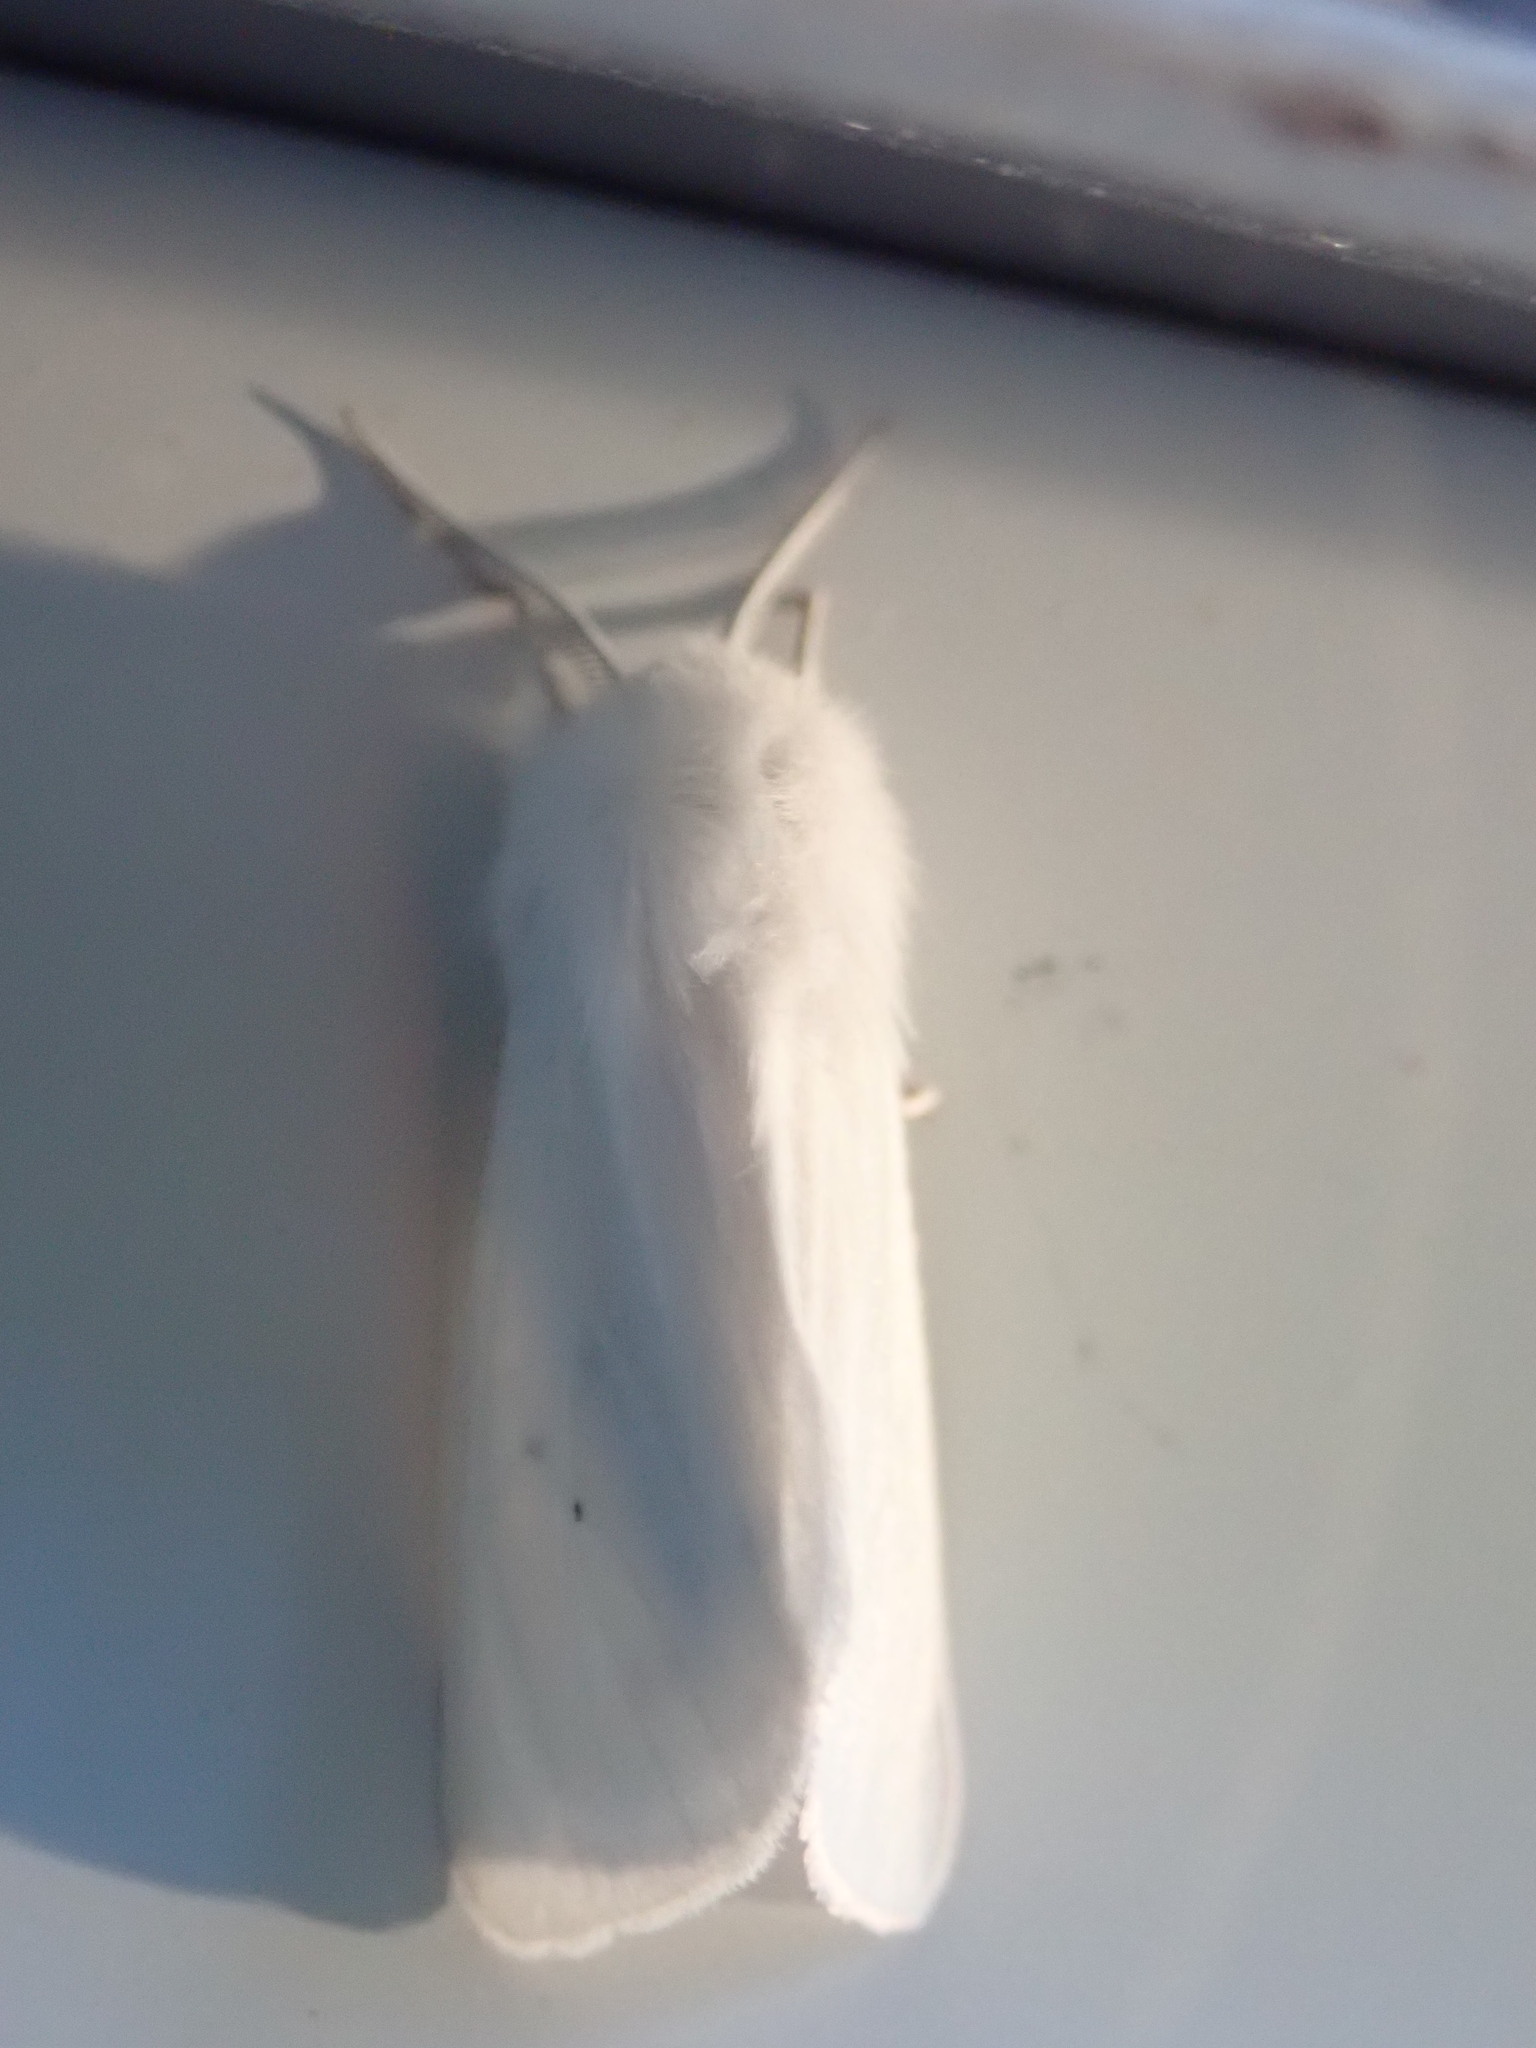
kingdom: Animalia
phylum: Arthropoda
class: Insecta
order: Lepidoptera
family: Erebidae
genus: Spilosoma
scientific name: Spilosoma virginica
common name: Virginia tiger moth
